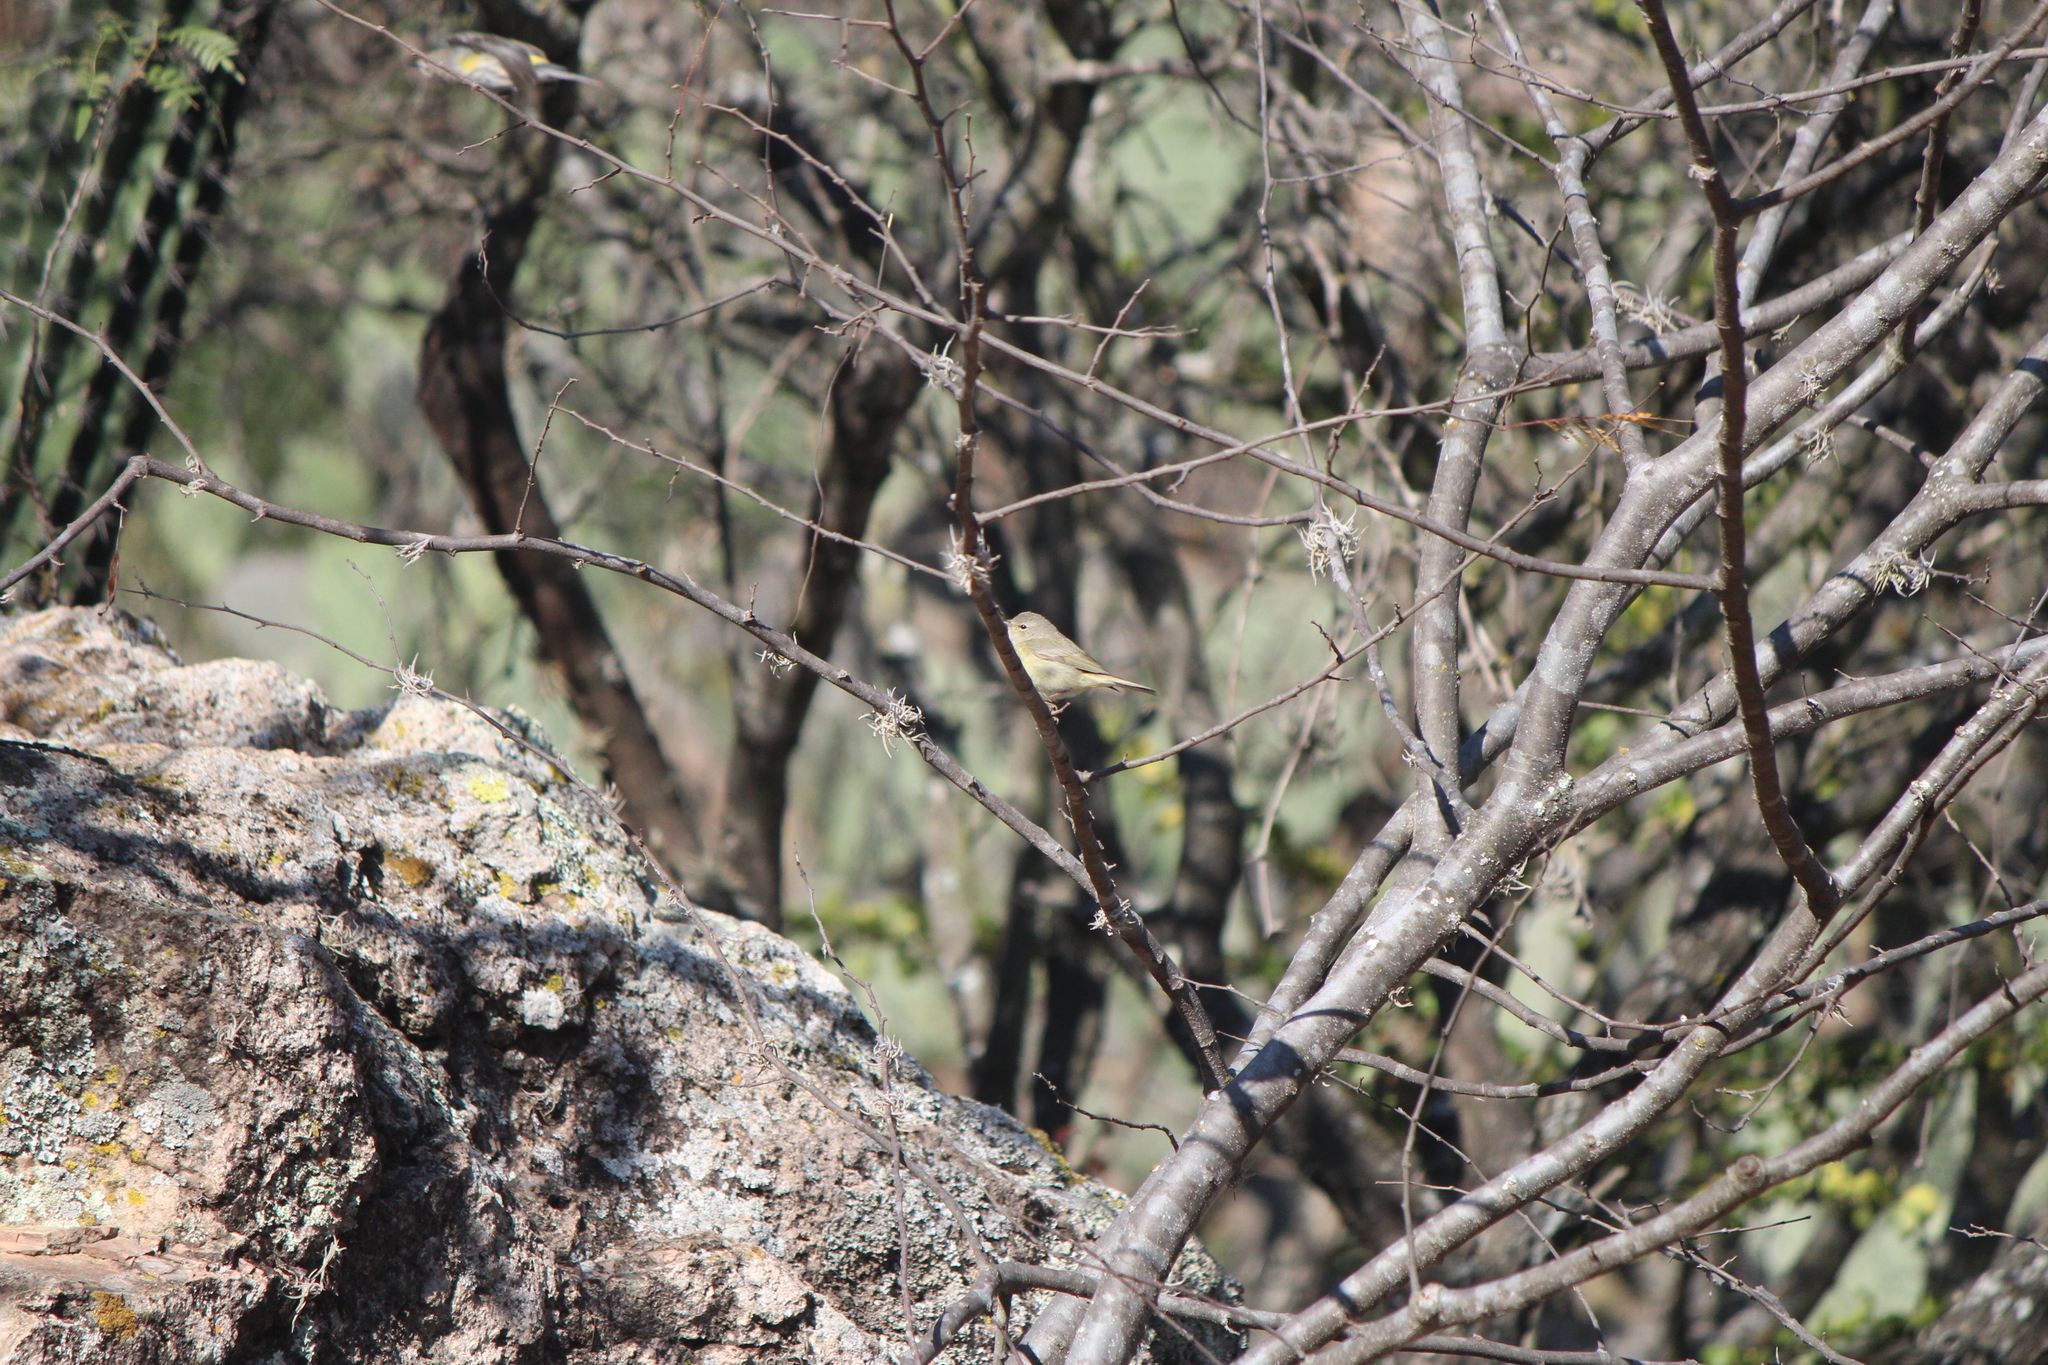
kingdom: Animalia
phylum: Chordata
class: Aves
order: Passeriformes
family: Parulidae
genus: Leiothlypis
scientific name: Leiothlypis celata
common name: Orange-crowned warbler
